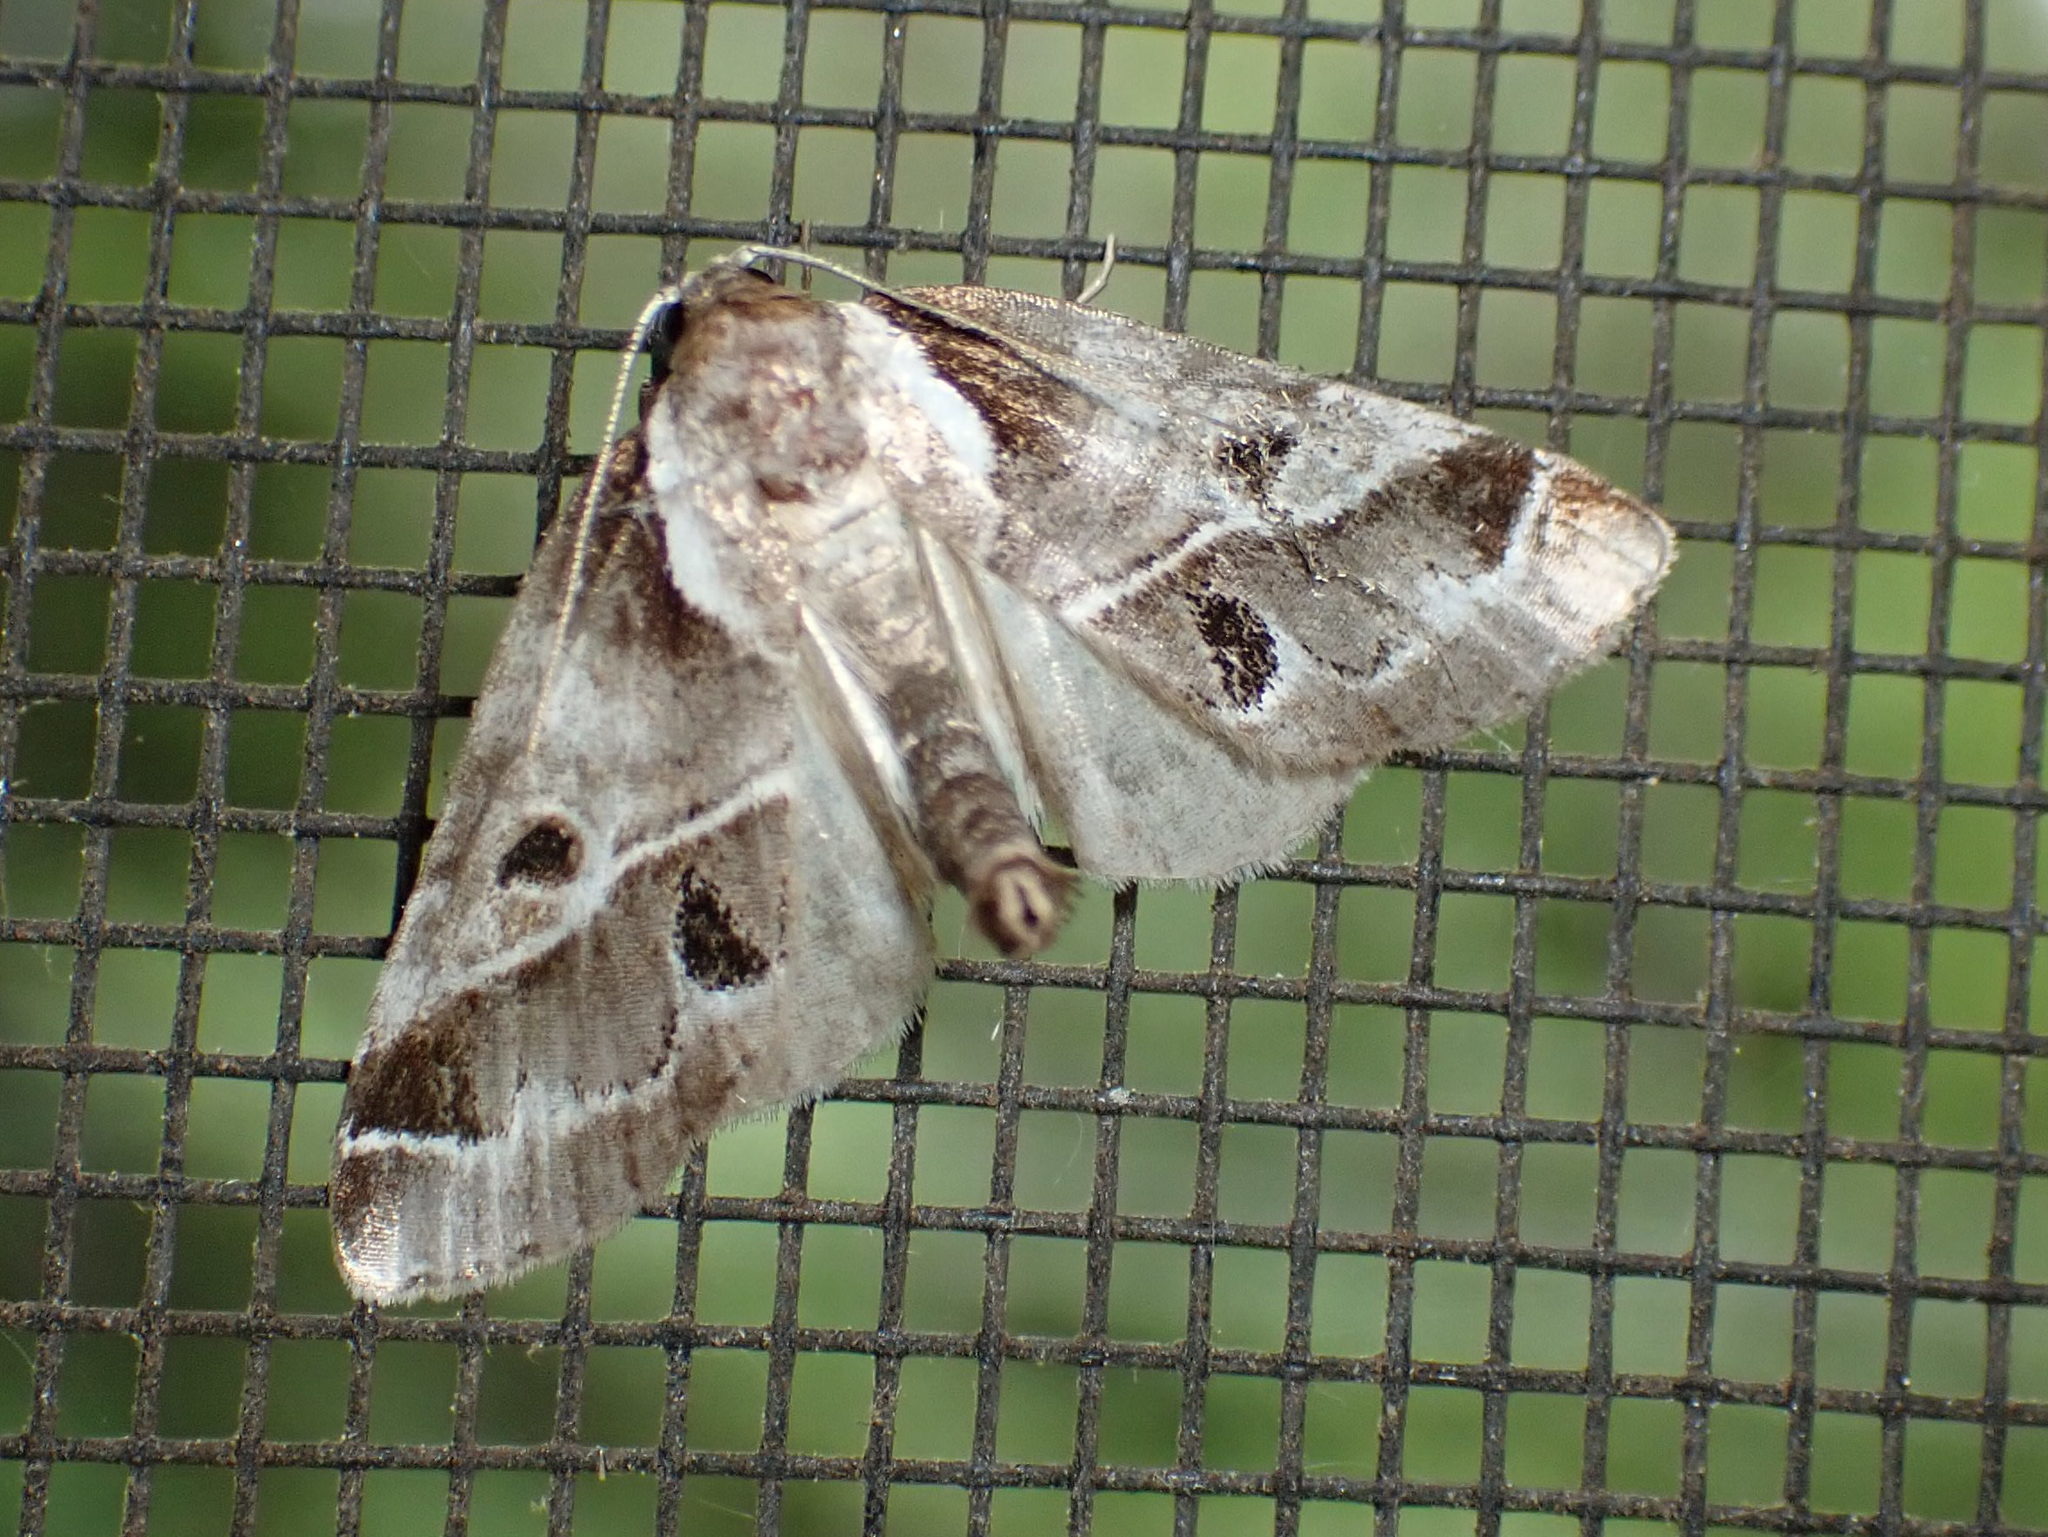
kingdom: Animalia
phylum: Arthropoda
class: Insecta
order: Lepidoptera
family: Nolidae
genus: Baileya
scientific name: Baileya doubledayi
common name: Doubleday's baileya moth
